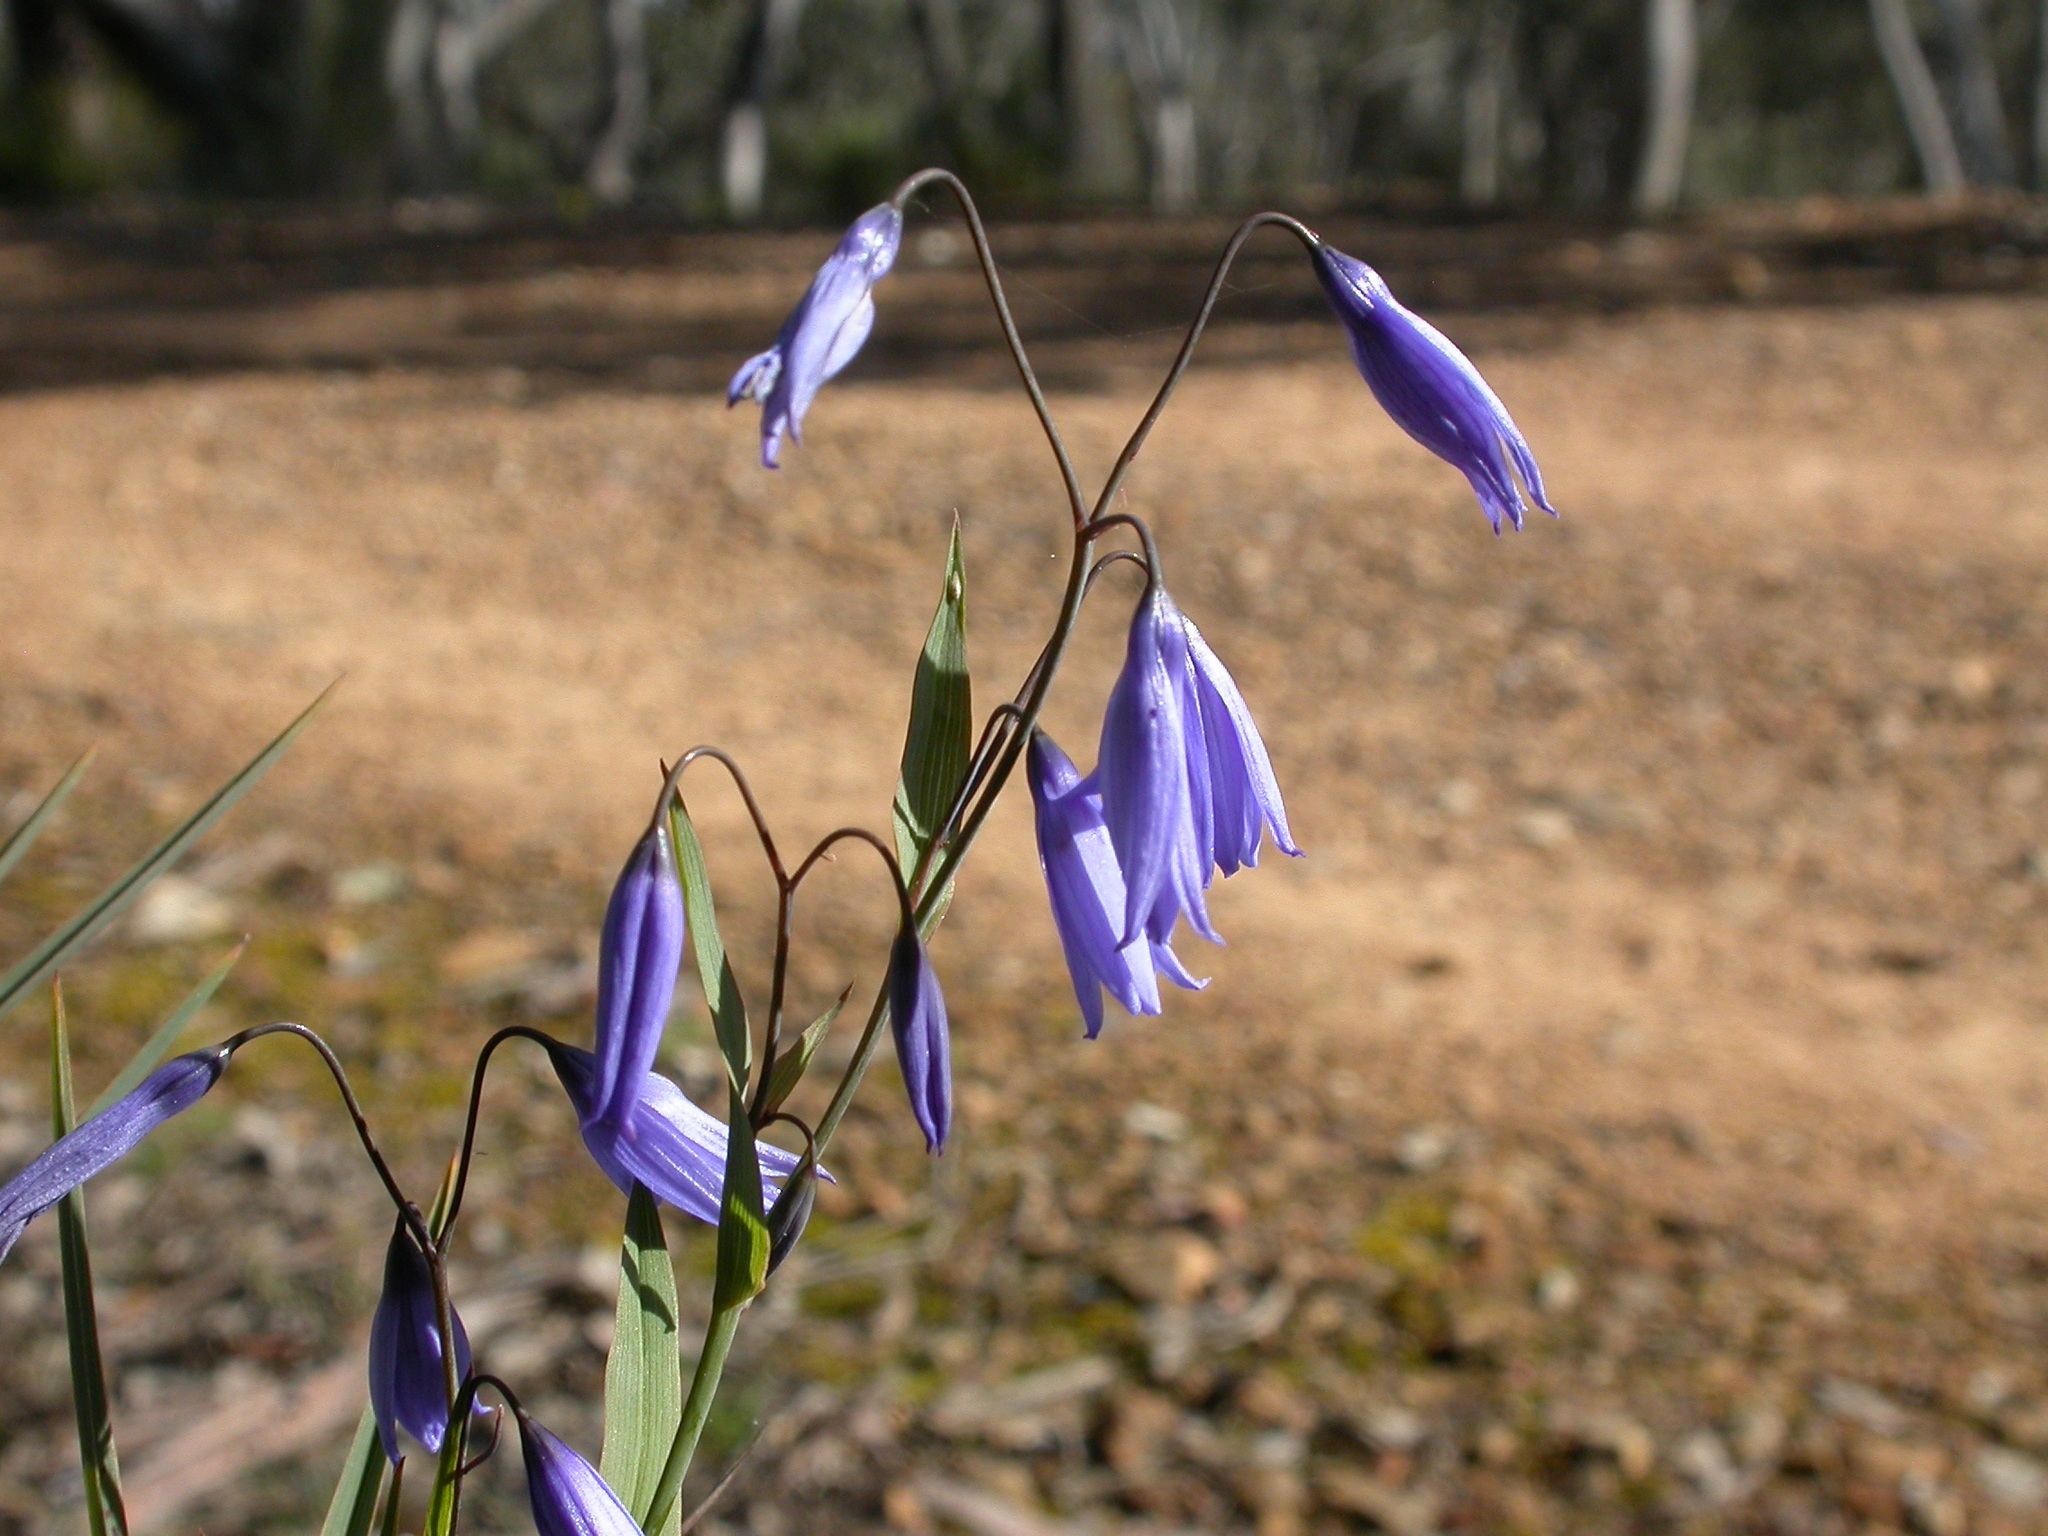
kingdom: Plantae
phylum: Tracheophyta
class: Liliopsida
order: Asparagales
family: Asphodelaceae
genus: Stypandra
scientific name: Stypandra glauca
